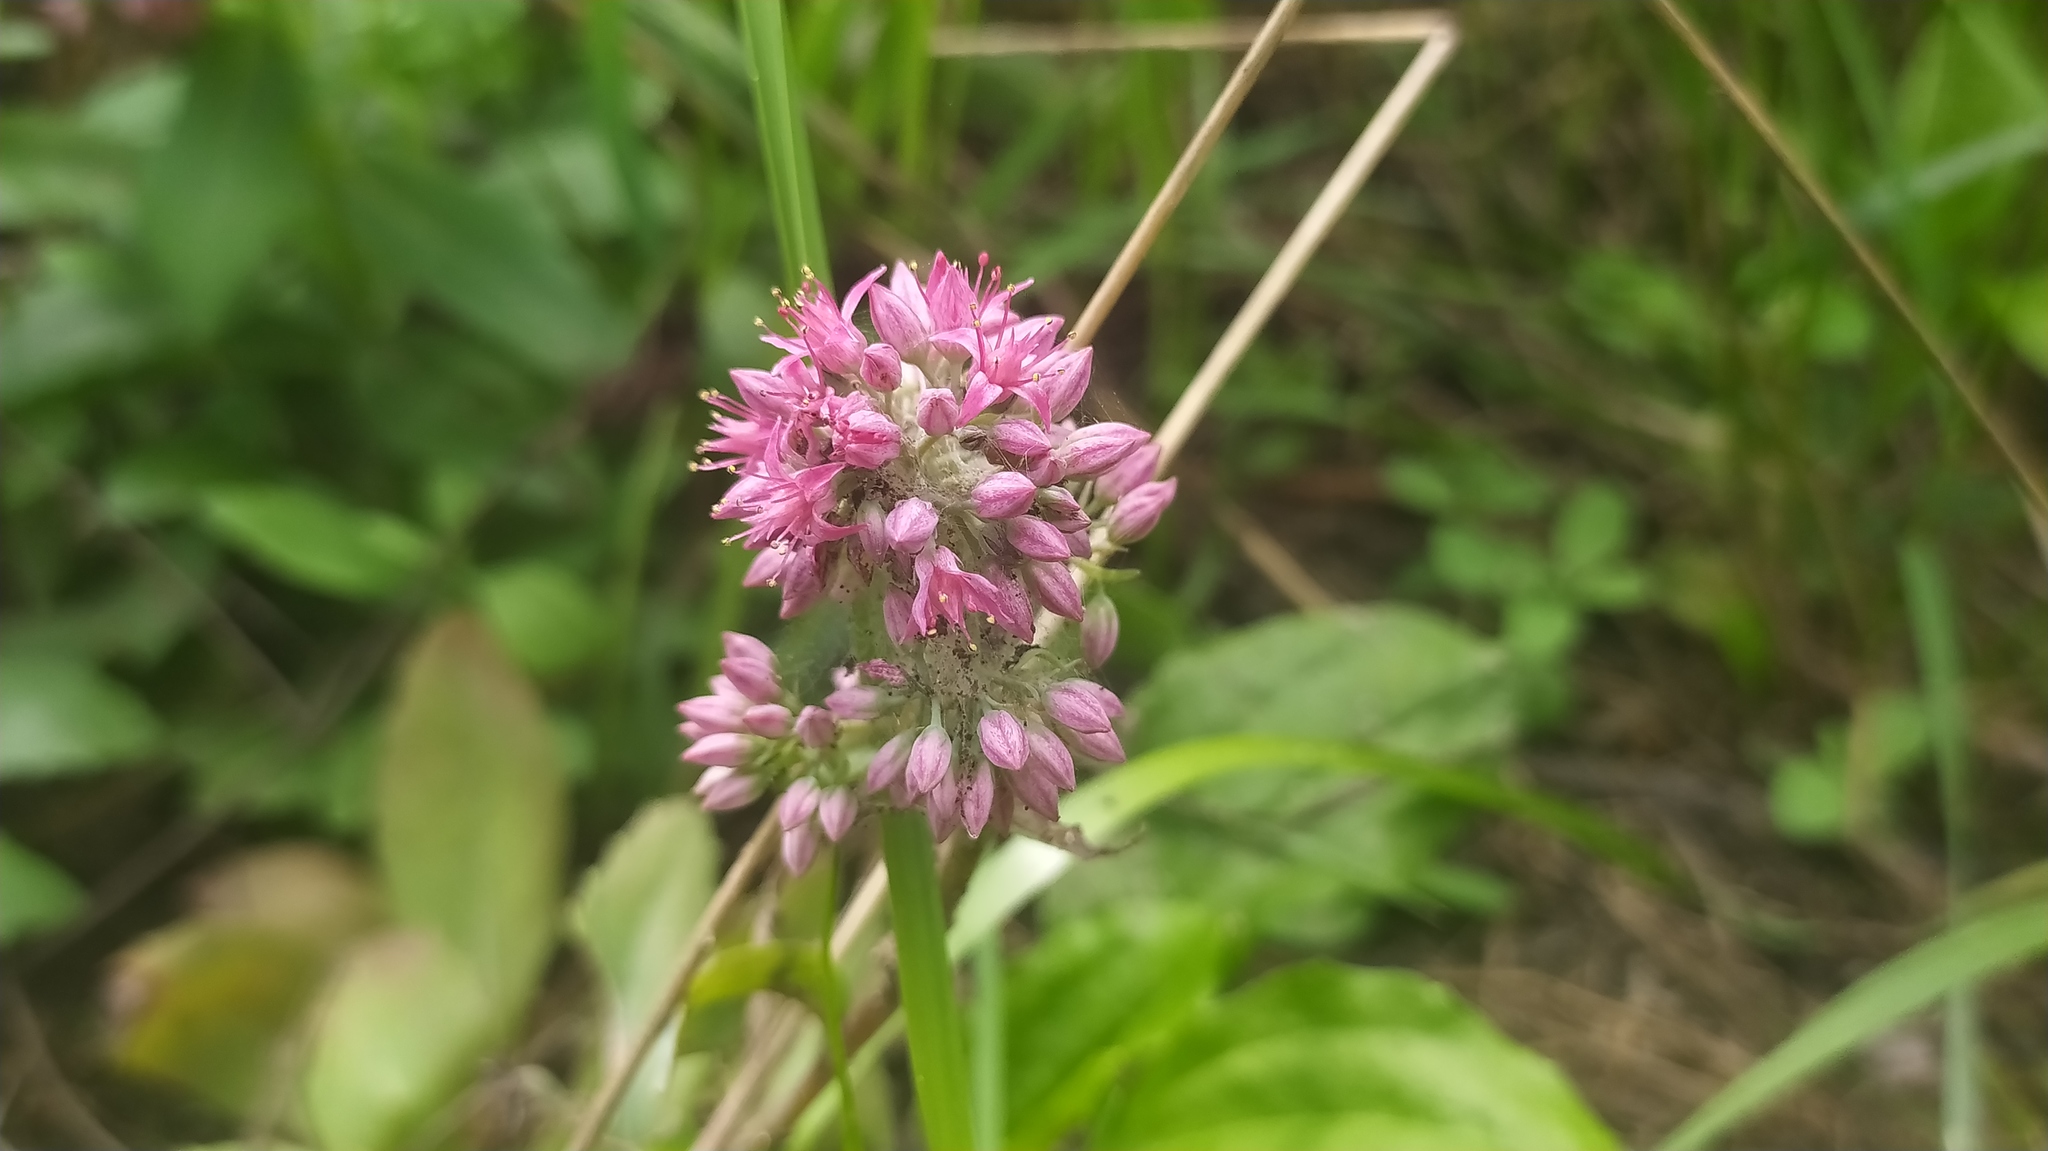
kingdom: Plantae
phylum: Tracheophyta
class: Magnoliopsida
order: Saxifragales
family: Crassulaceae
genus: Hylotelephium
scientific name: Hylotelephium telephium
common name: Live-forever
